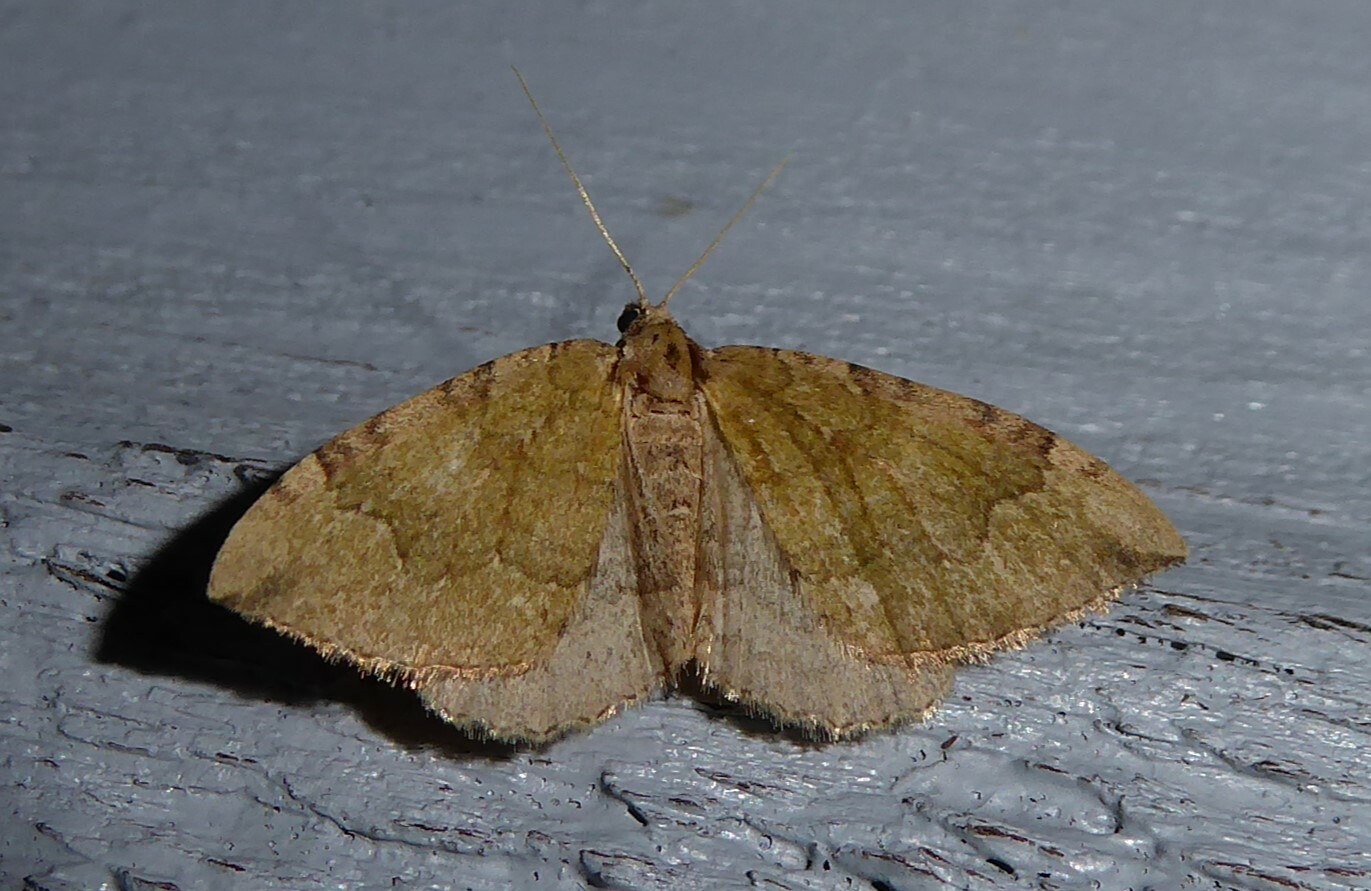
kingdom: Animalia
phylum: Arthropoda
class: Insecta
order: Lepidoptera
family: Geometridae
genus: Epyaxa
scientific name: Epyaxa rosearia
